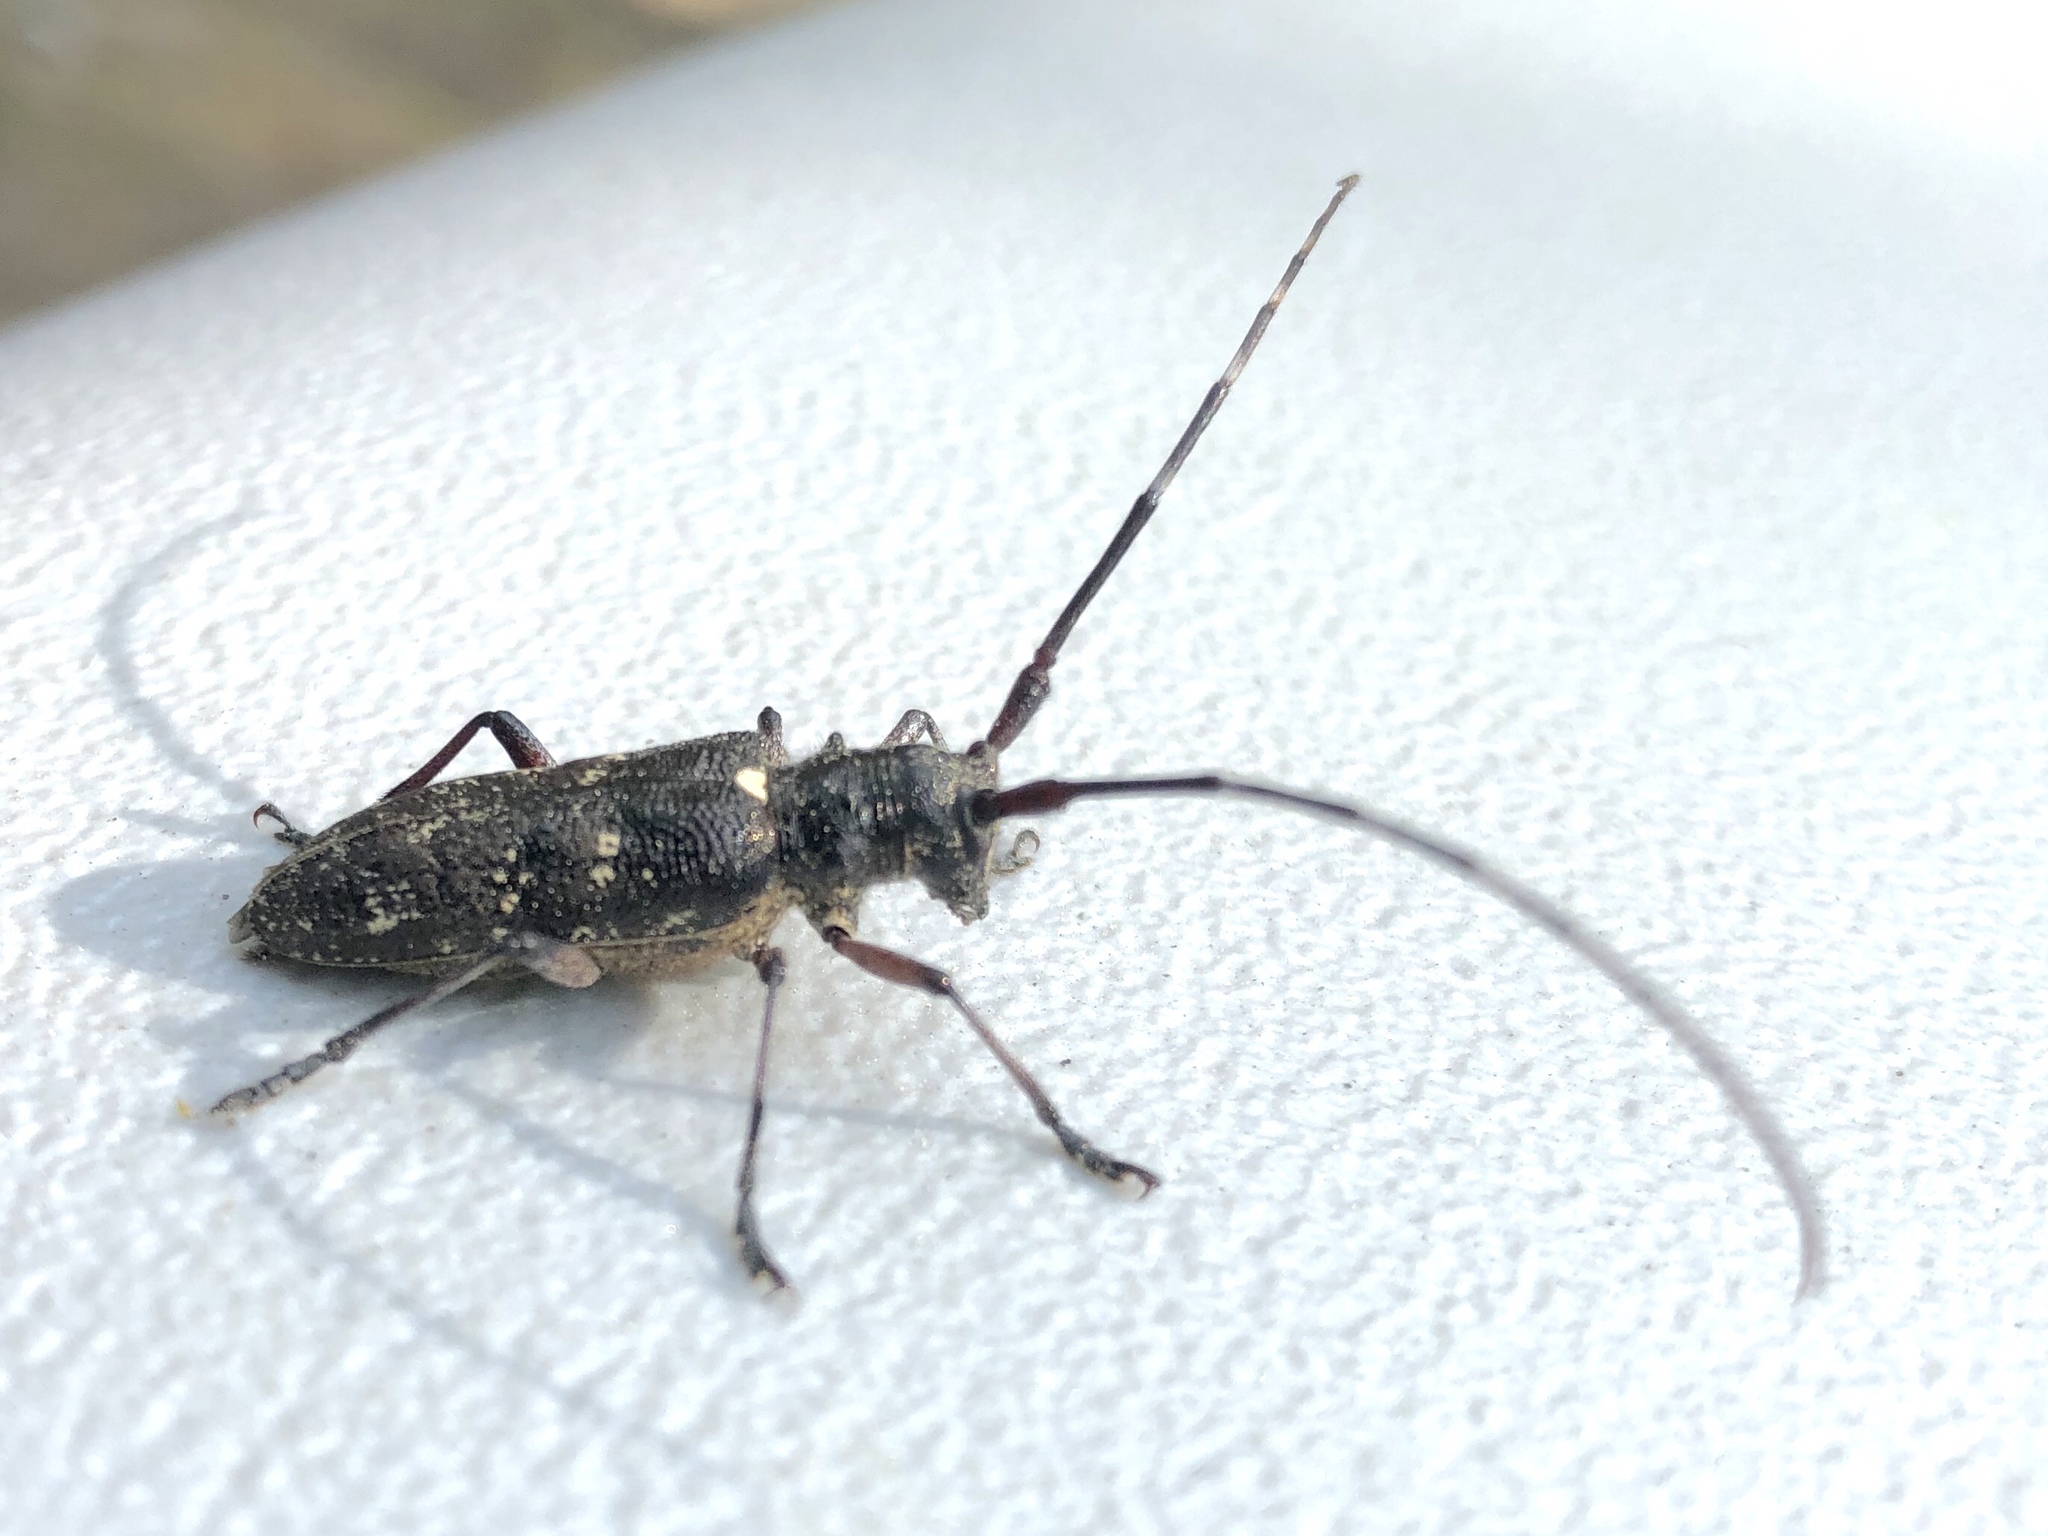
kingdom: Animalia
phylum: Arthropoda
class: Insecta
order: Coleoptera
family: Cerambycidae
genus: Monochamus
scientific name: Monochamus scutellatus
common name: White-spotted sawyer beetle
